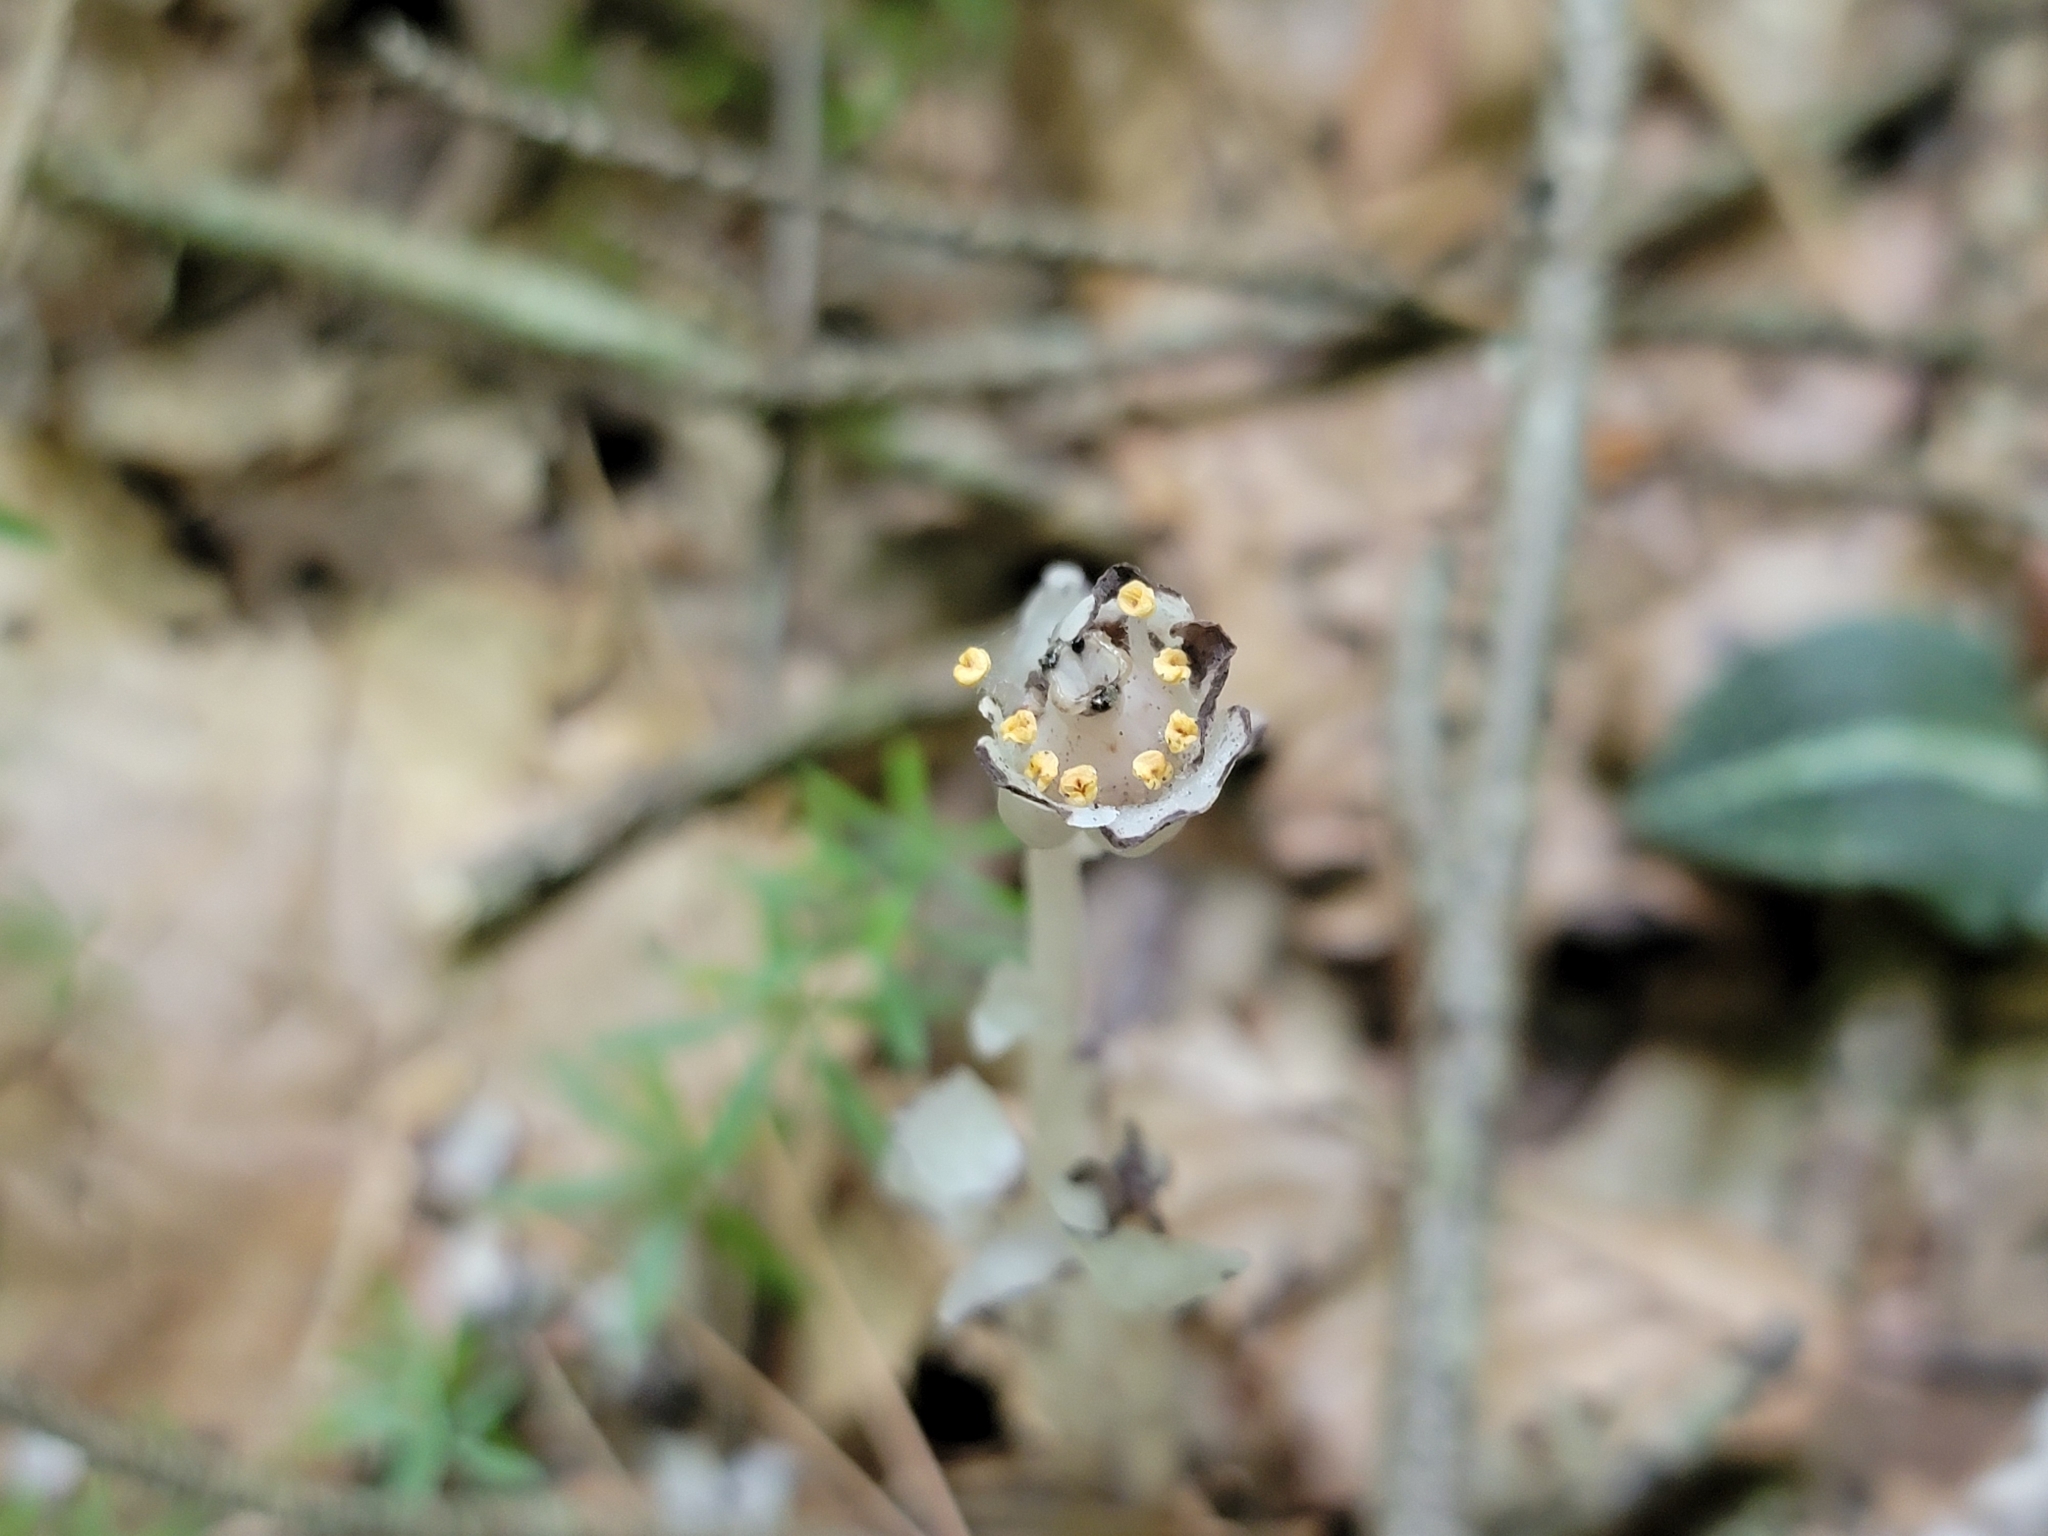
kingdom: Plantae
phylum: Tracheophyta
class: Magnoliopsida
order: Ericales
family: Ericaceae
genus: Monotropa
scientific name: Monotropa uniflora
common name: Convulsion root
